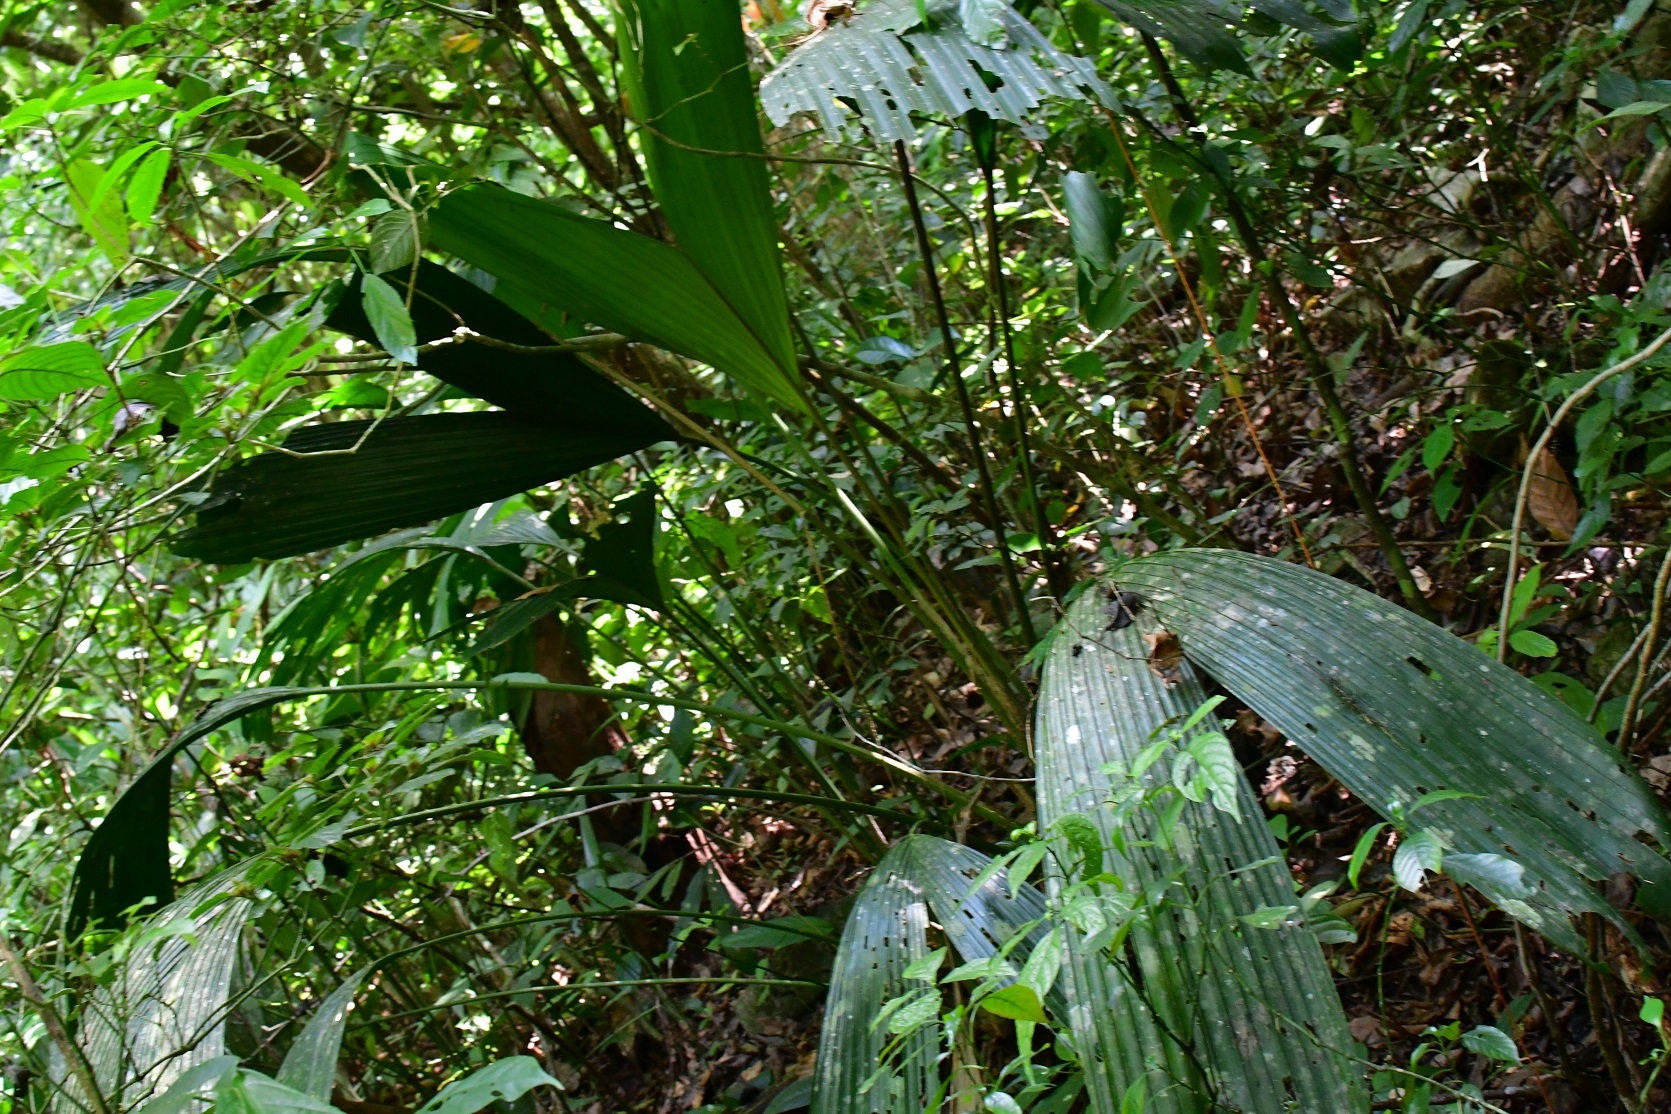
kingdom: Plantae
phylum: Tracheophyta
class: Liliopsida
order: Pandanales
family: Cyclanthaceae
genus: Asplundia
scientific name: Asplundia liebmannii
